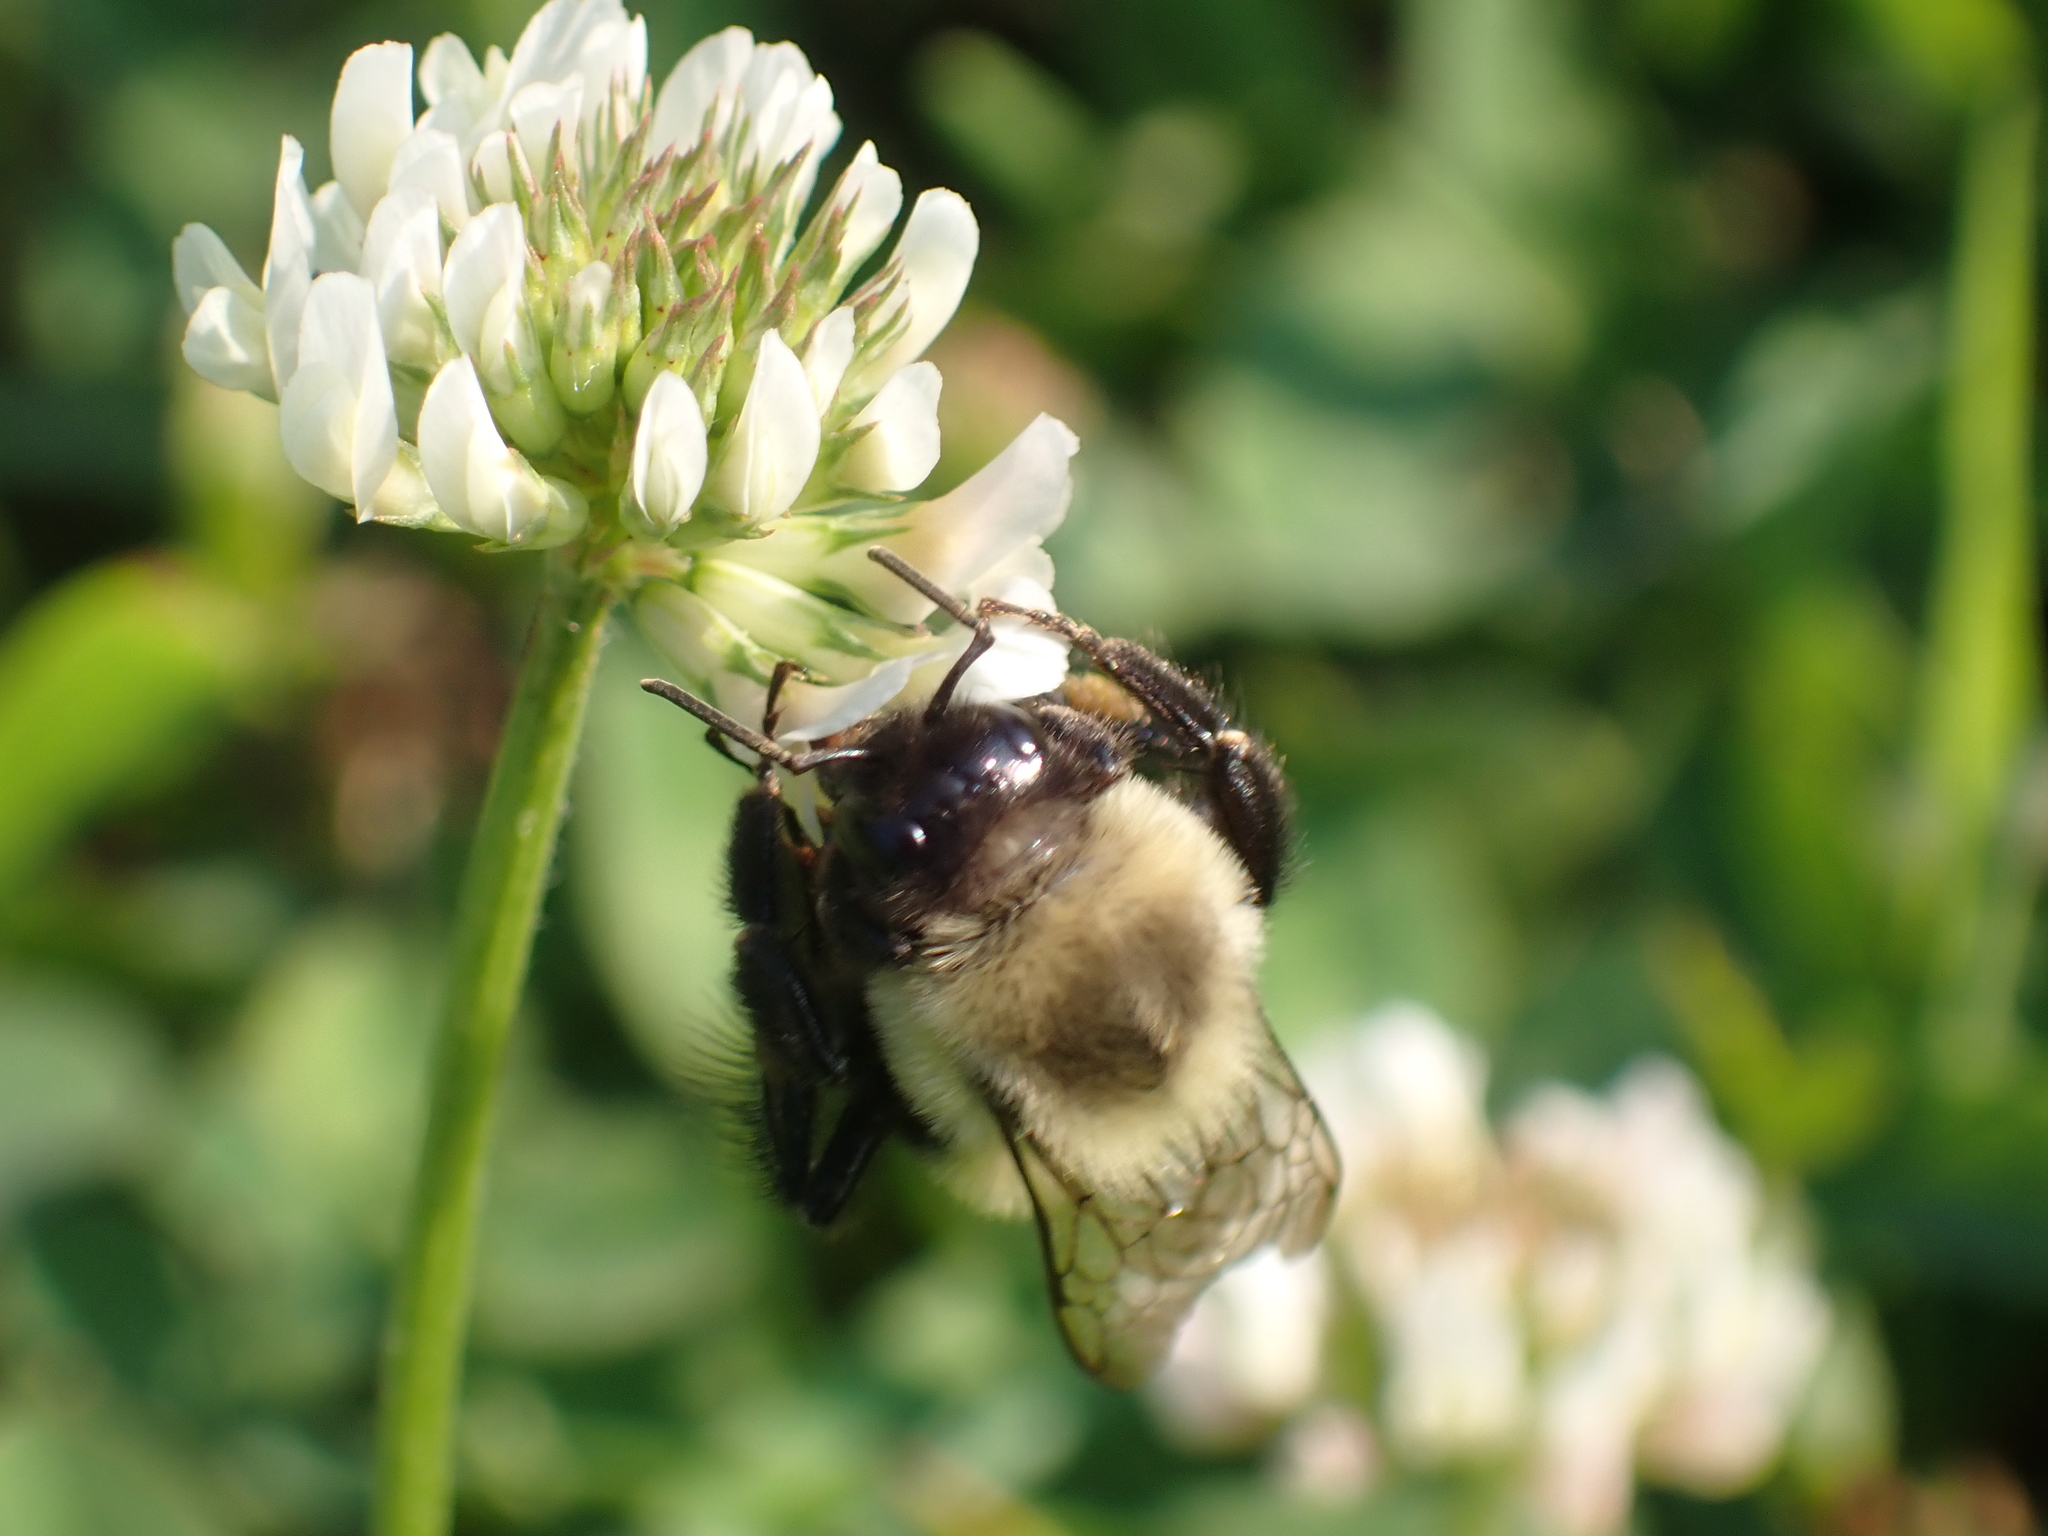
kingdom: Animalia
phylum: Arthropoda
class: Insecta
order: Hymenoptera
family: Apidae
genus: Bombus
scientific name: Bombus impatiens
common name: Common eastern bumble bee
